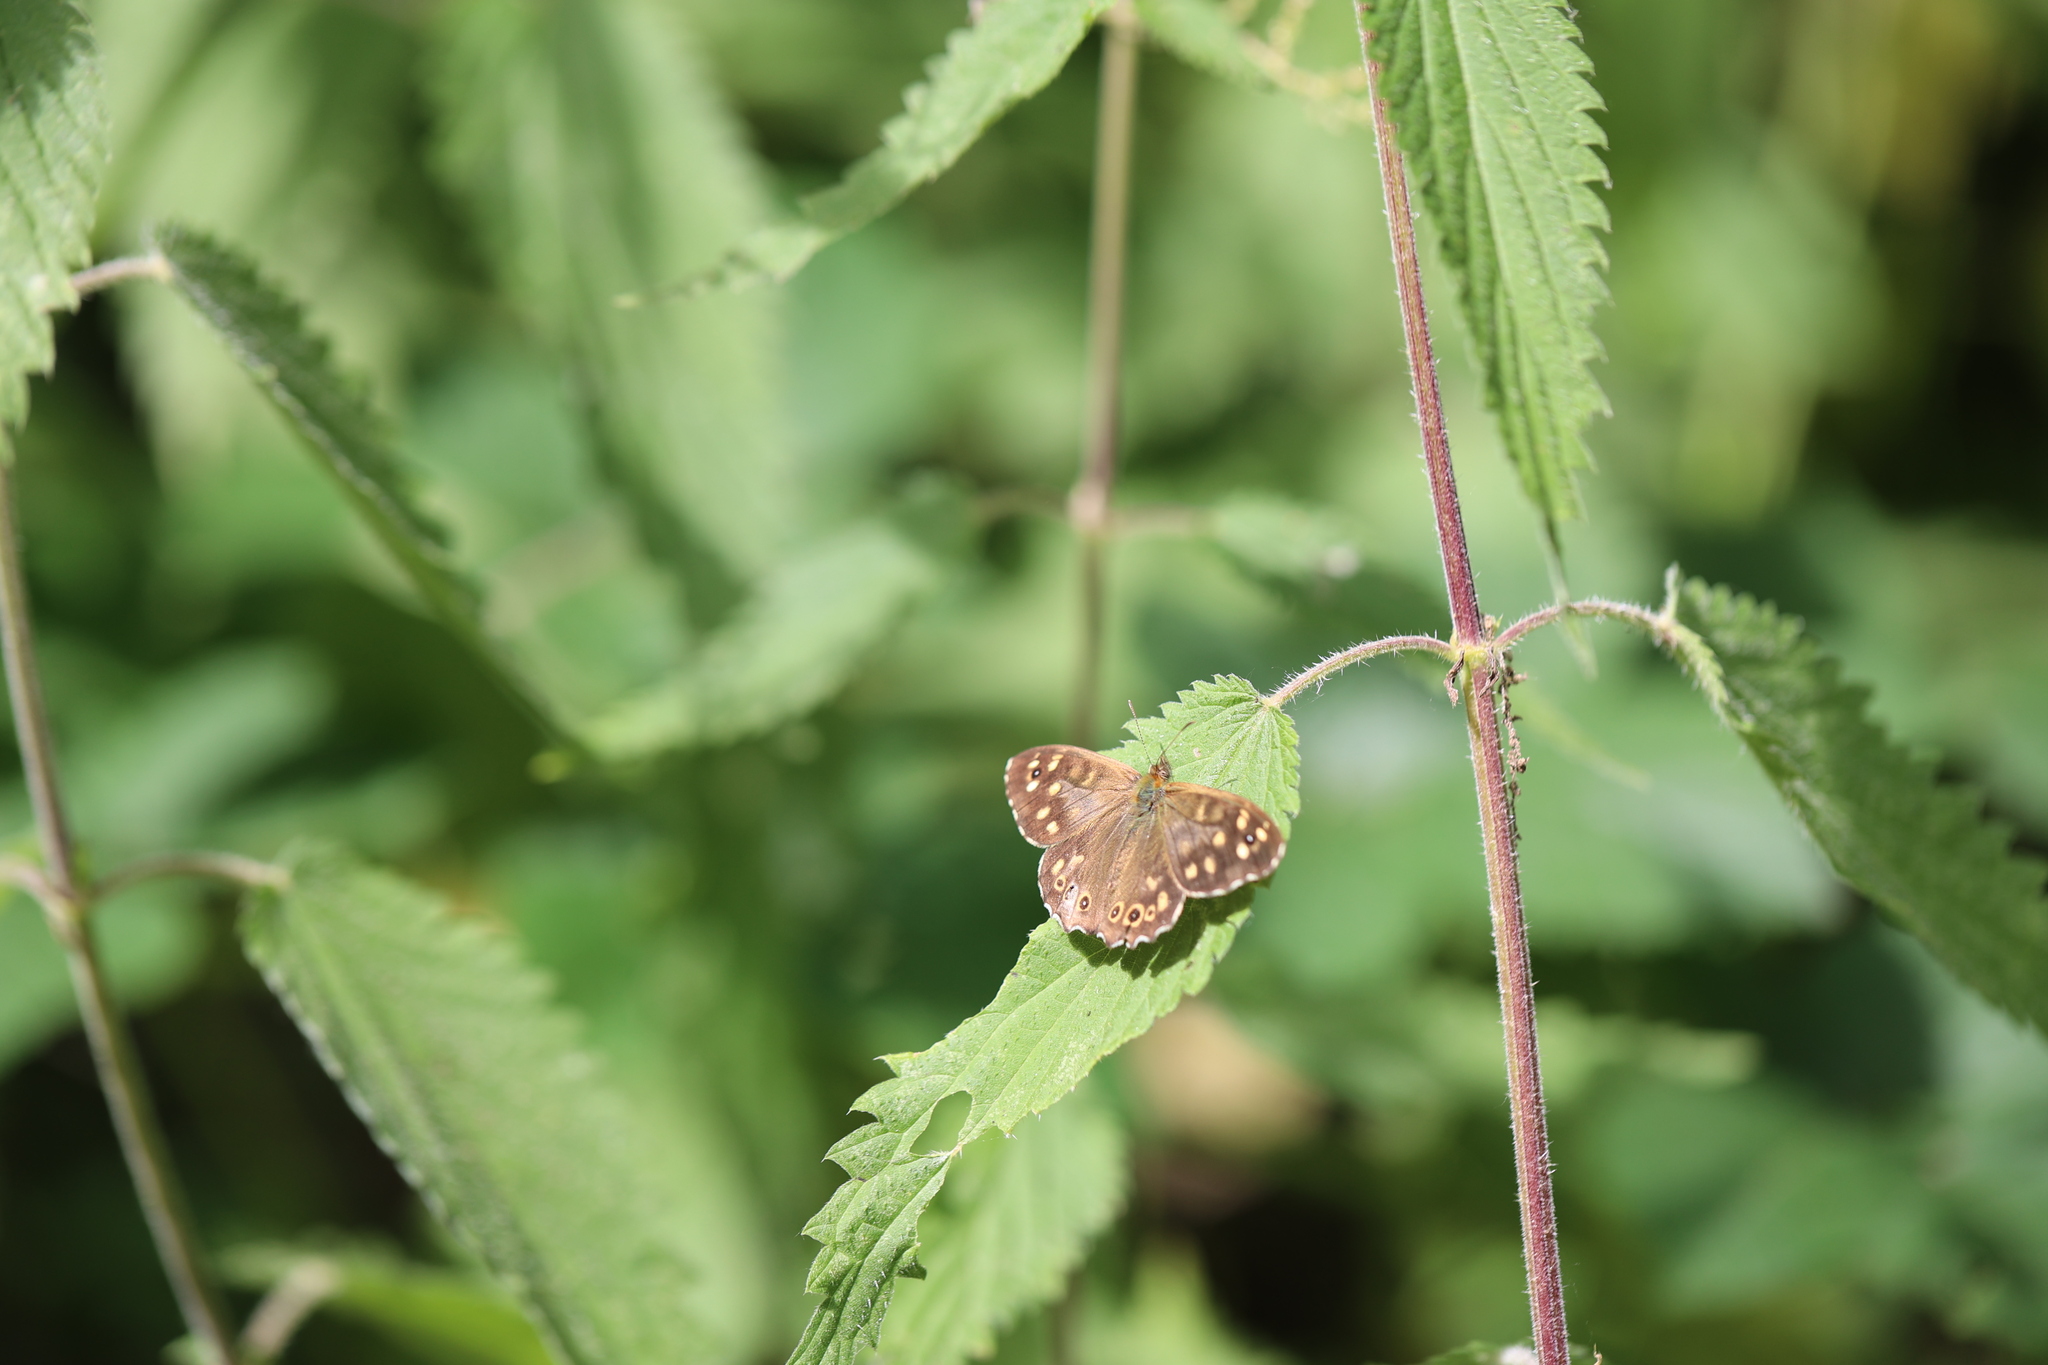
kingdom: Animalia
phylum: Arthropoda
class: Insecta
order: Lepidoptera
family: Nymphalidae
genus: Pararge
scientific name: Pararge aegeria
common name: Speckled wood
